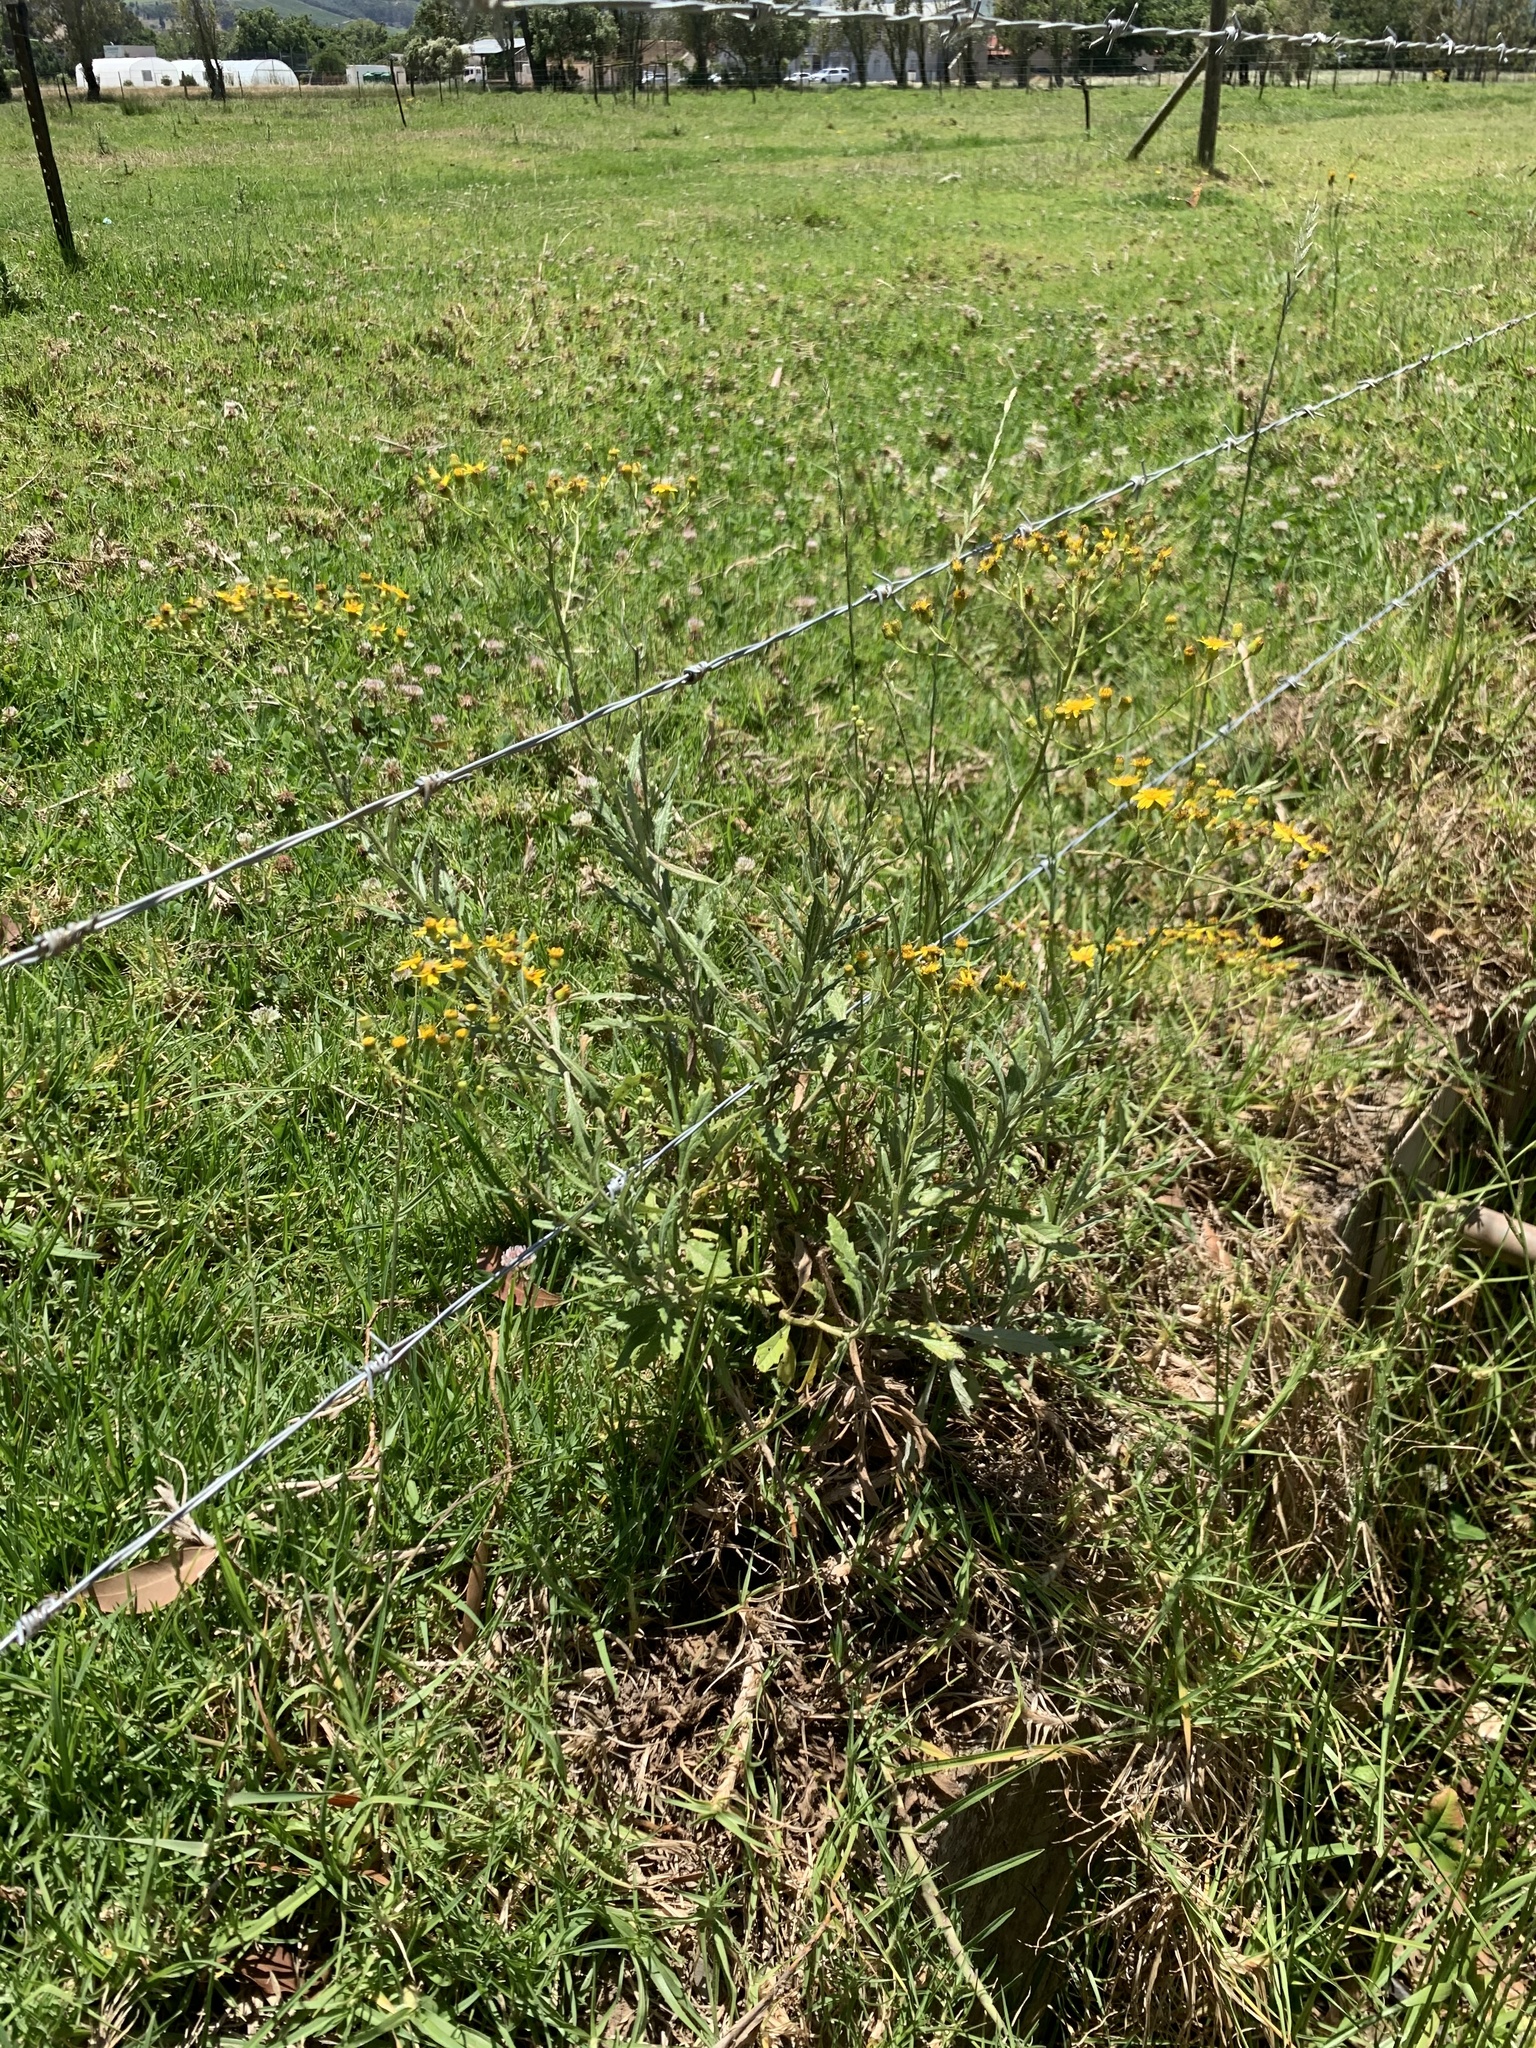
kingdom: Plantae
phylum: Tracheophyta
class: Magnoliopsida
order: Asterales
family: Asteraceae
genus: Senecio
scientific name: Senecio pterophorus
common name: Shoddy ragwort
